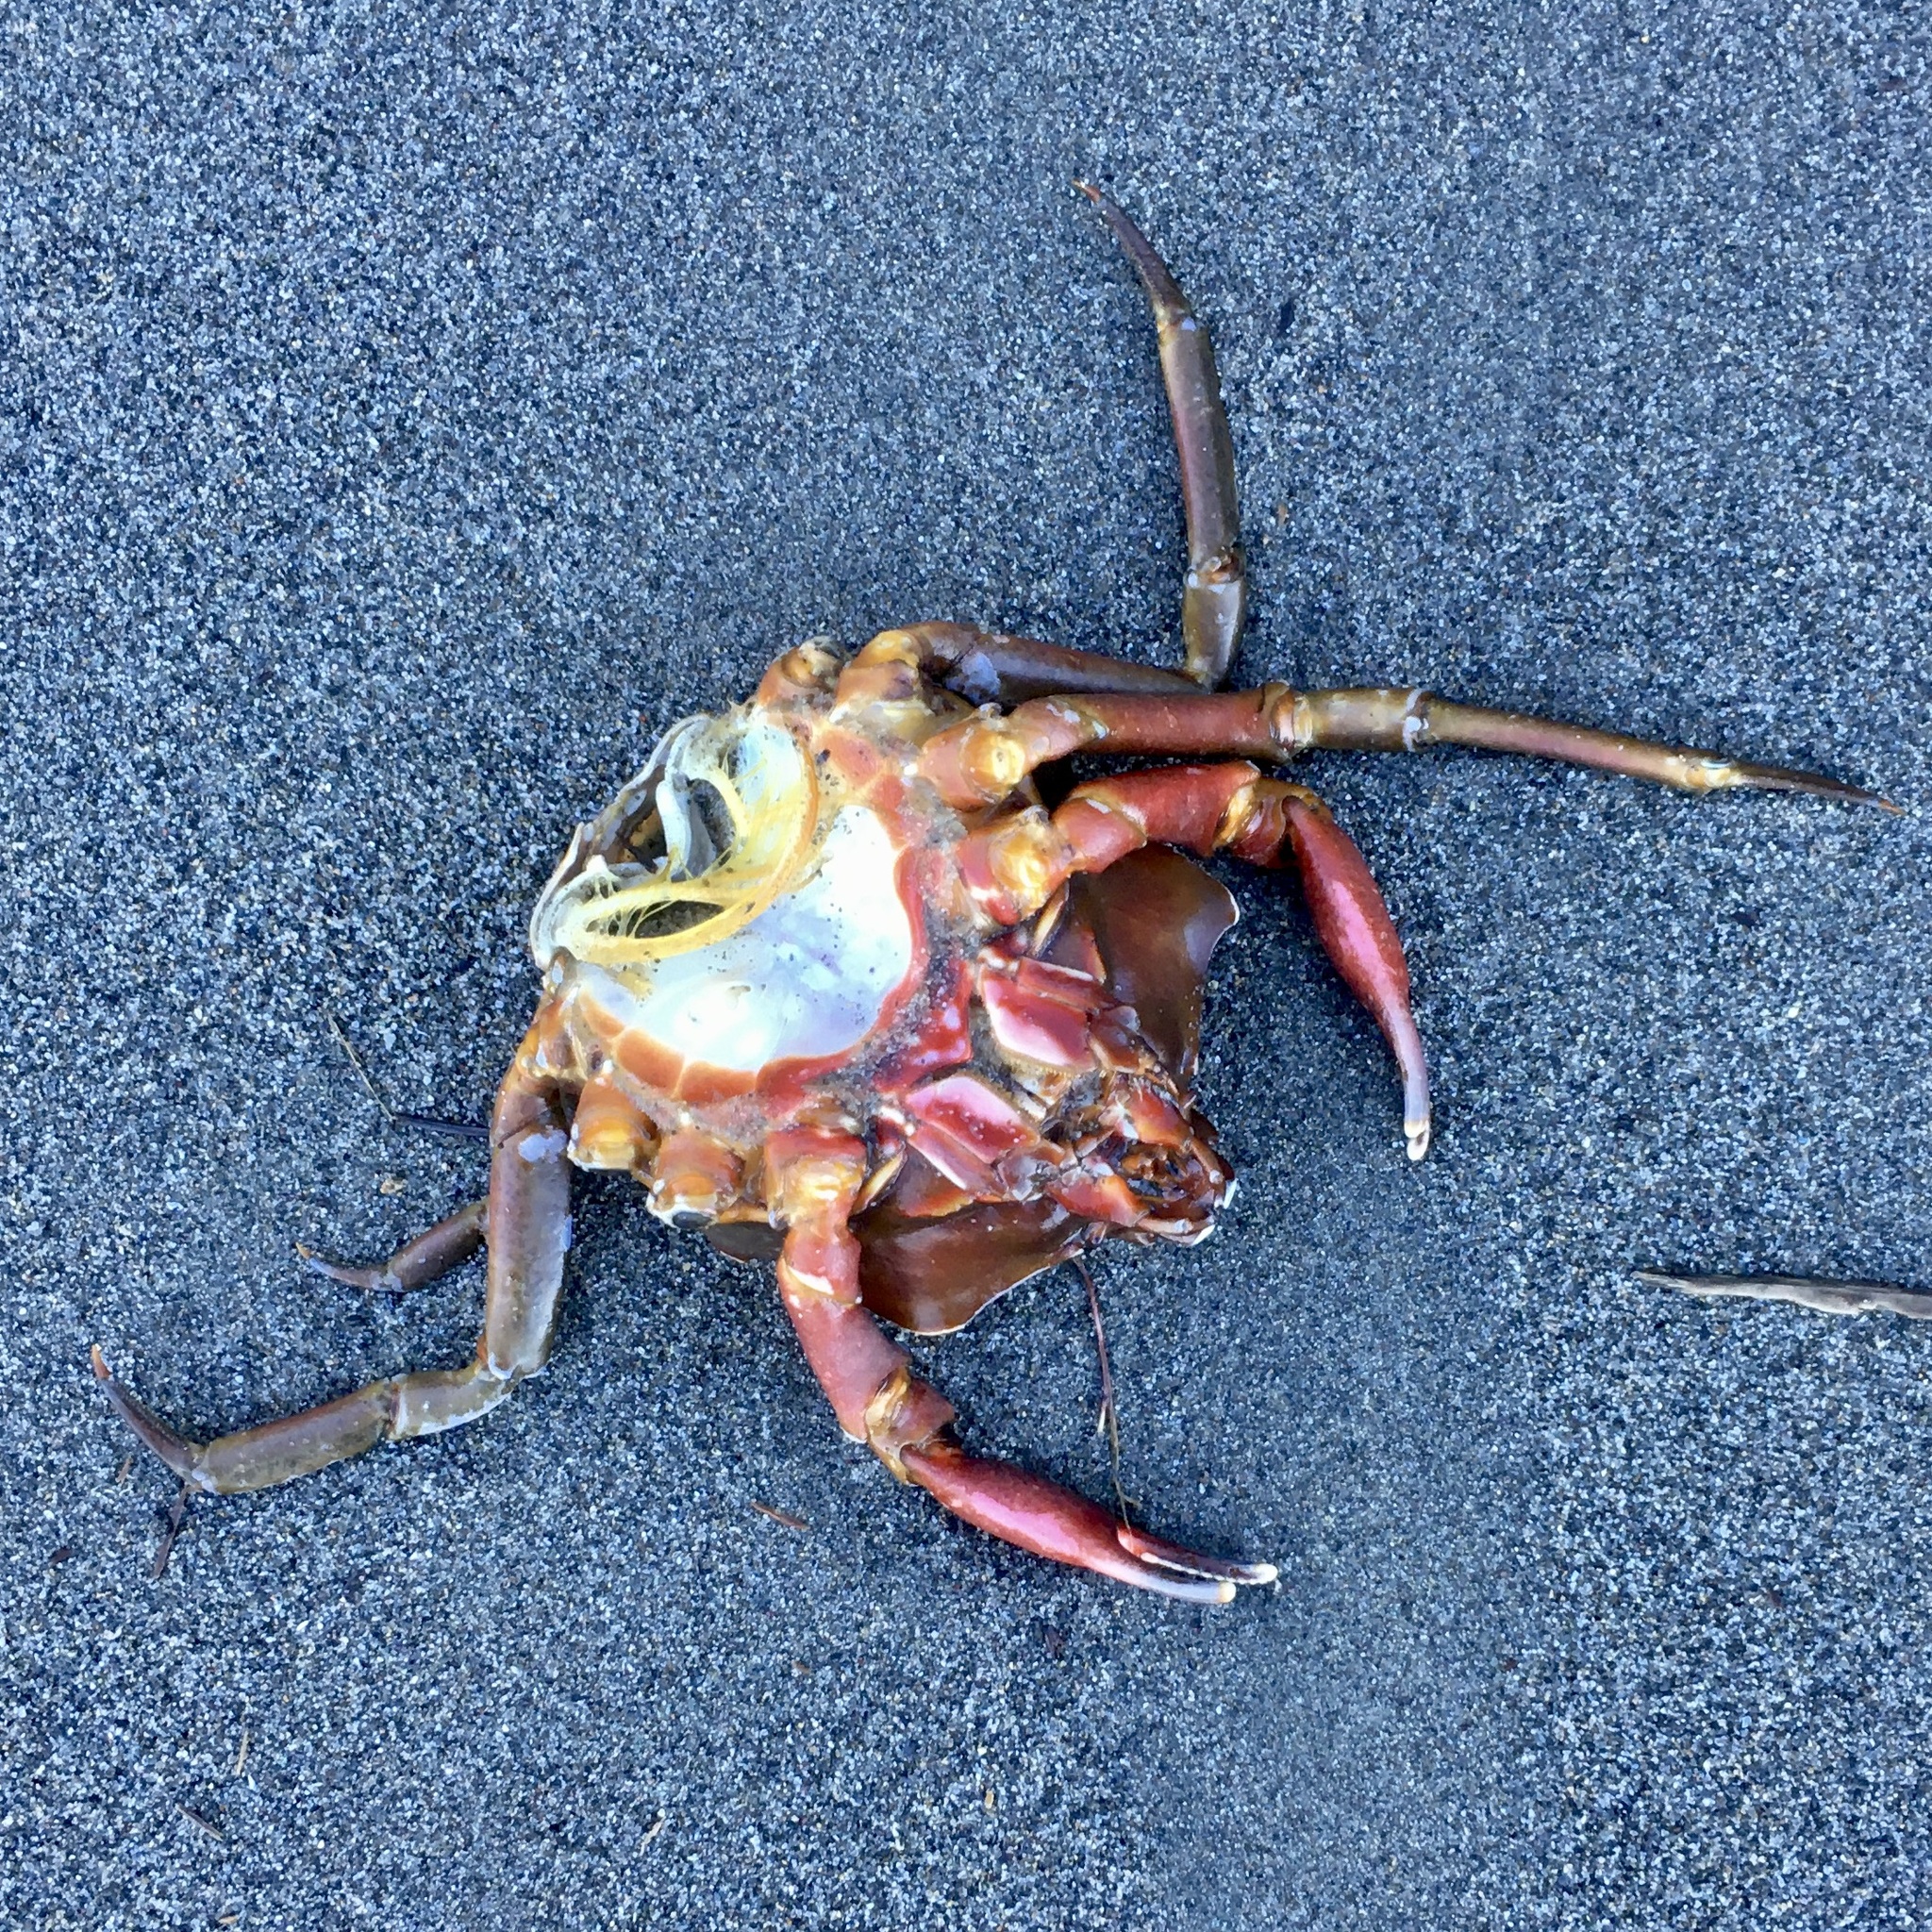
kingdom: Animalia
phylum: Arthropoda
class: Malacostraca
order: Decapoda
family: Epialtidae
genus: Pugettia
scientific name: Pugettia producta
